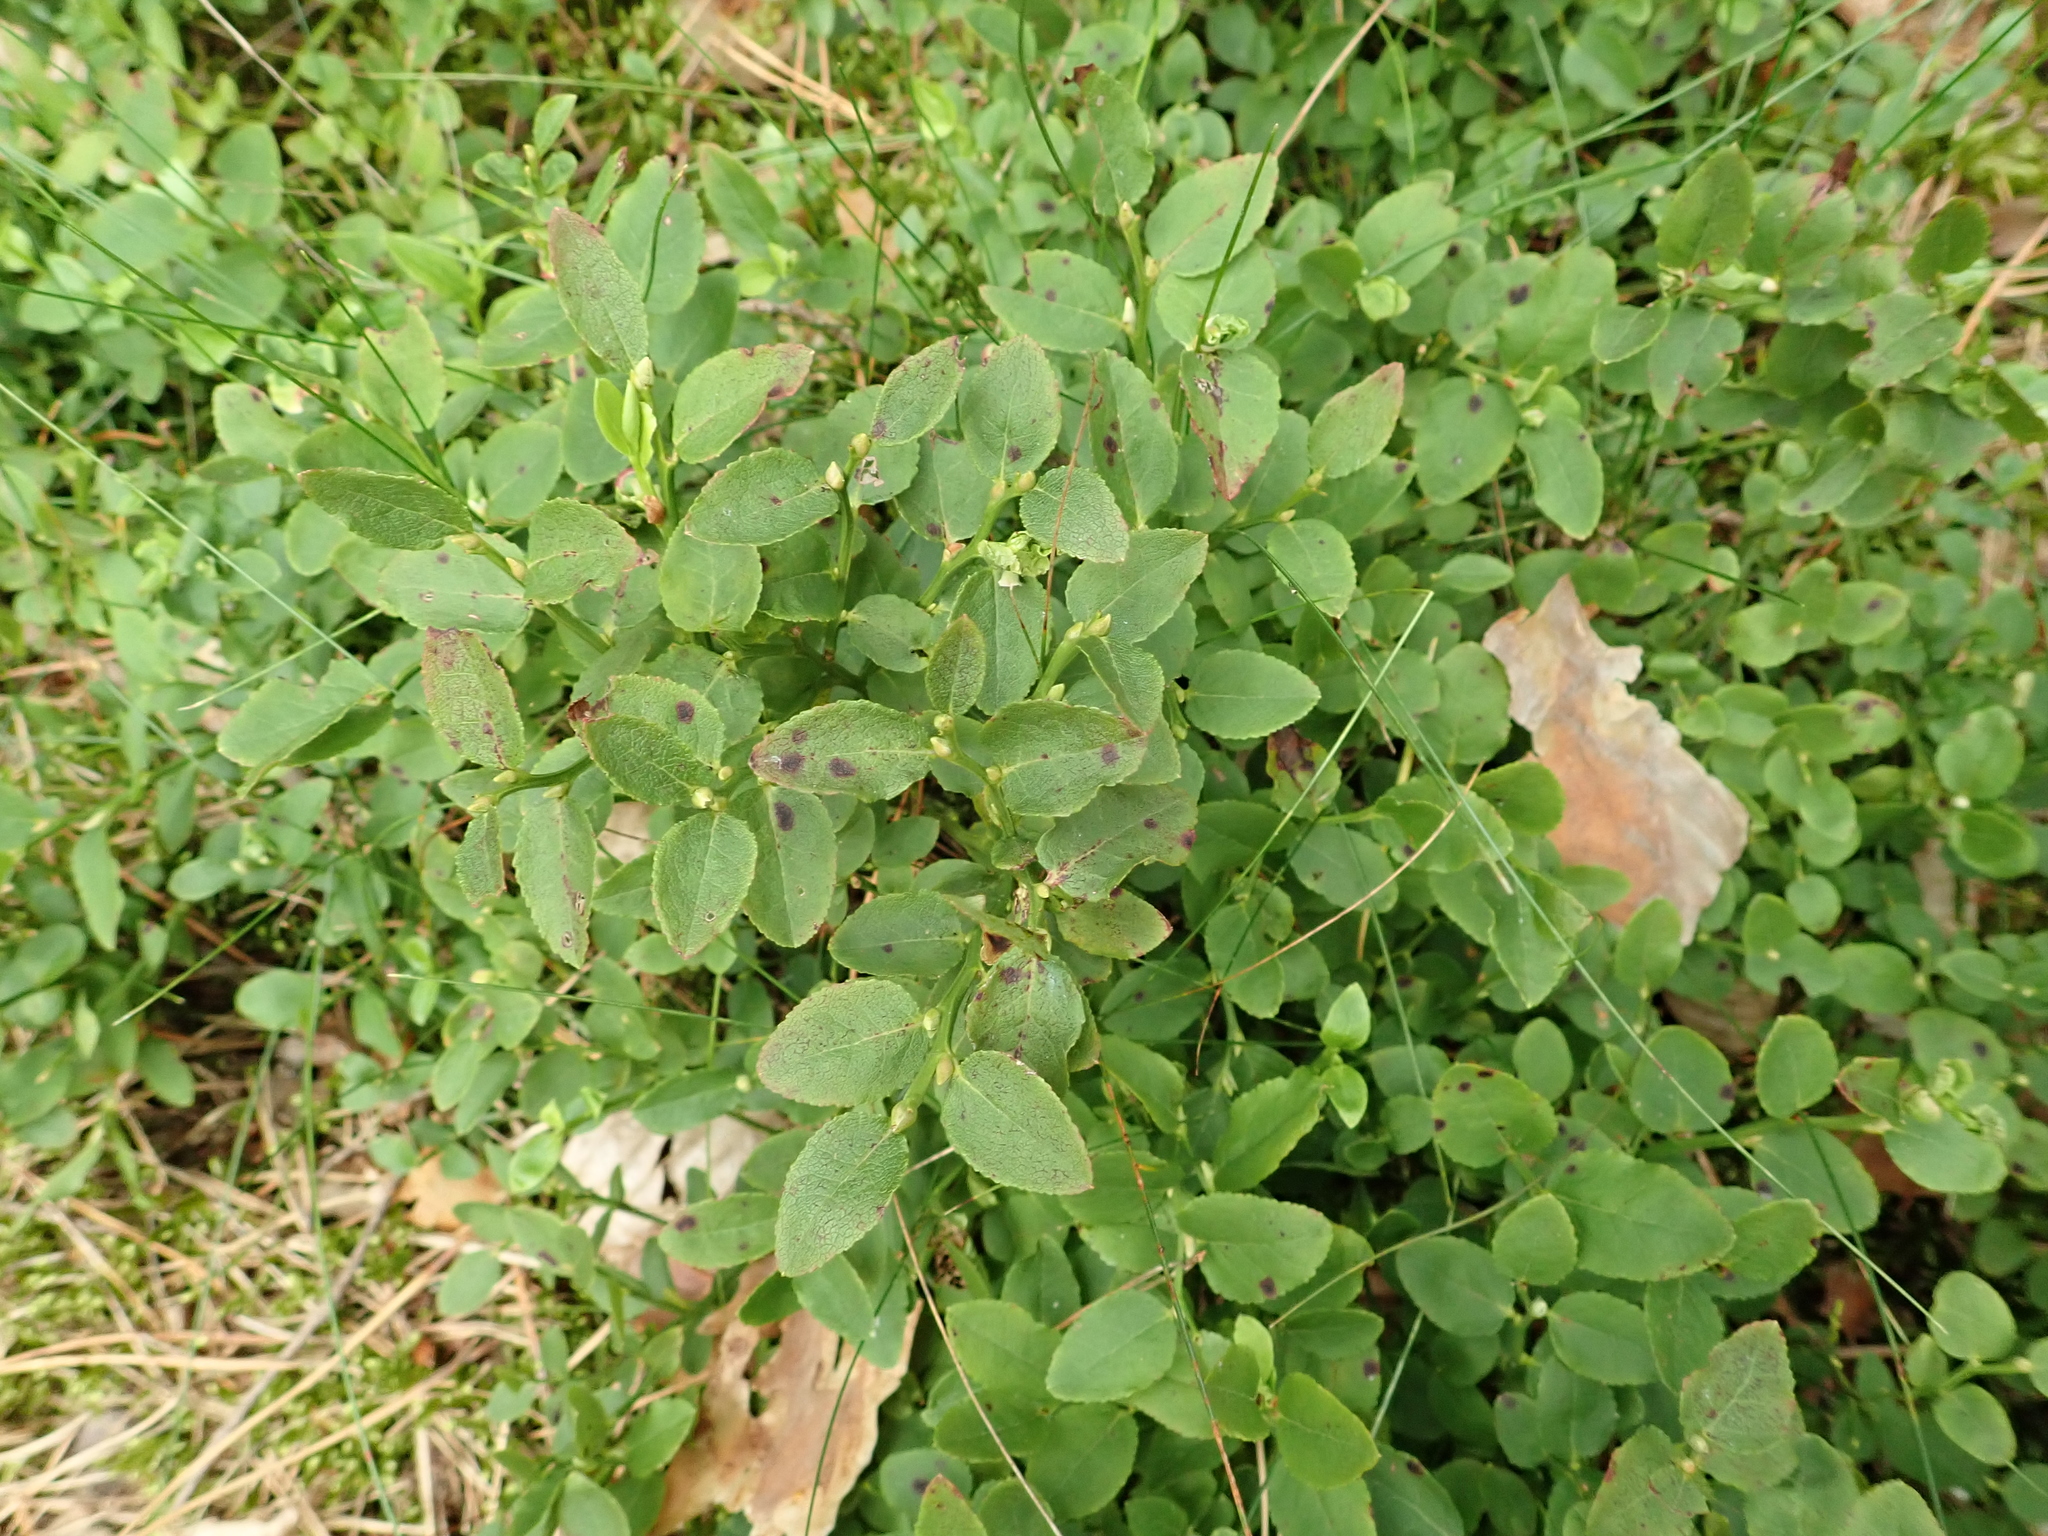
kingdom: Plantae
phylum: Tracheophyta
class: Magnoliopsida
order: Ericales
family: Ericaceae
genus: Vaccinium
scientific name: Vaccinium myrtillus
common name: Bilberry
